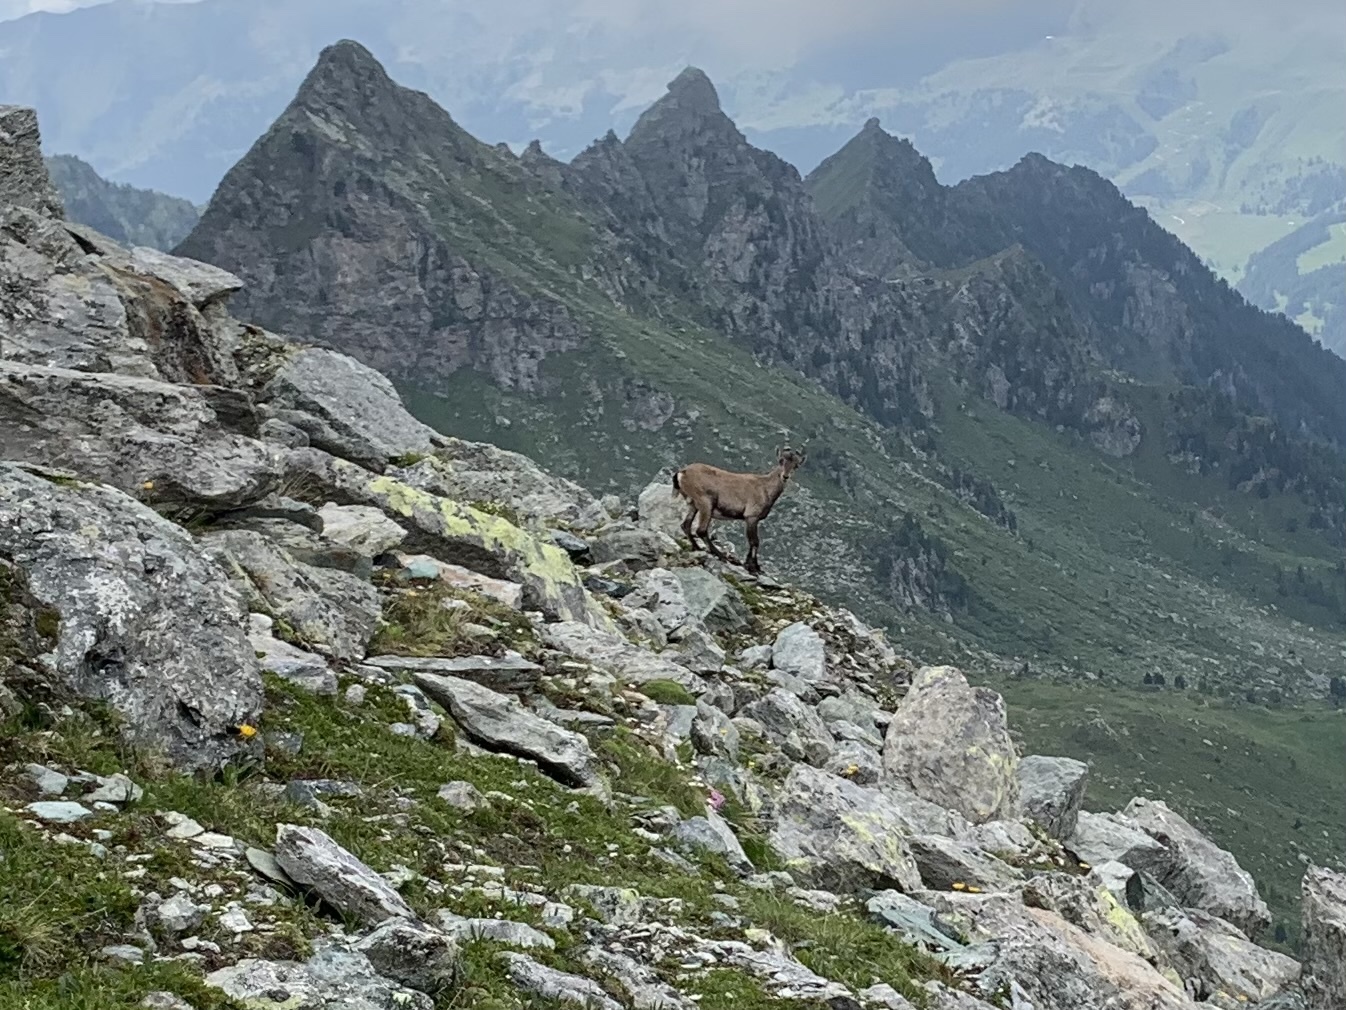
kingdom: Animalia
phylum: Chordata
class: Mammalia
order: Artiodactyla
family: Bovidae
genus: Capra
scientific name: Capra ibex
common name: Alpine ibex
